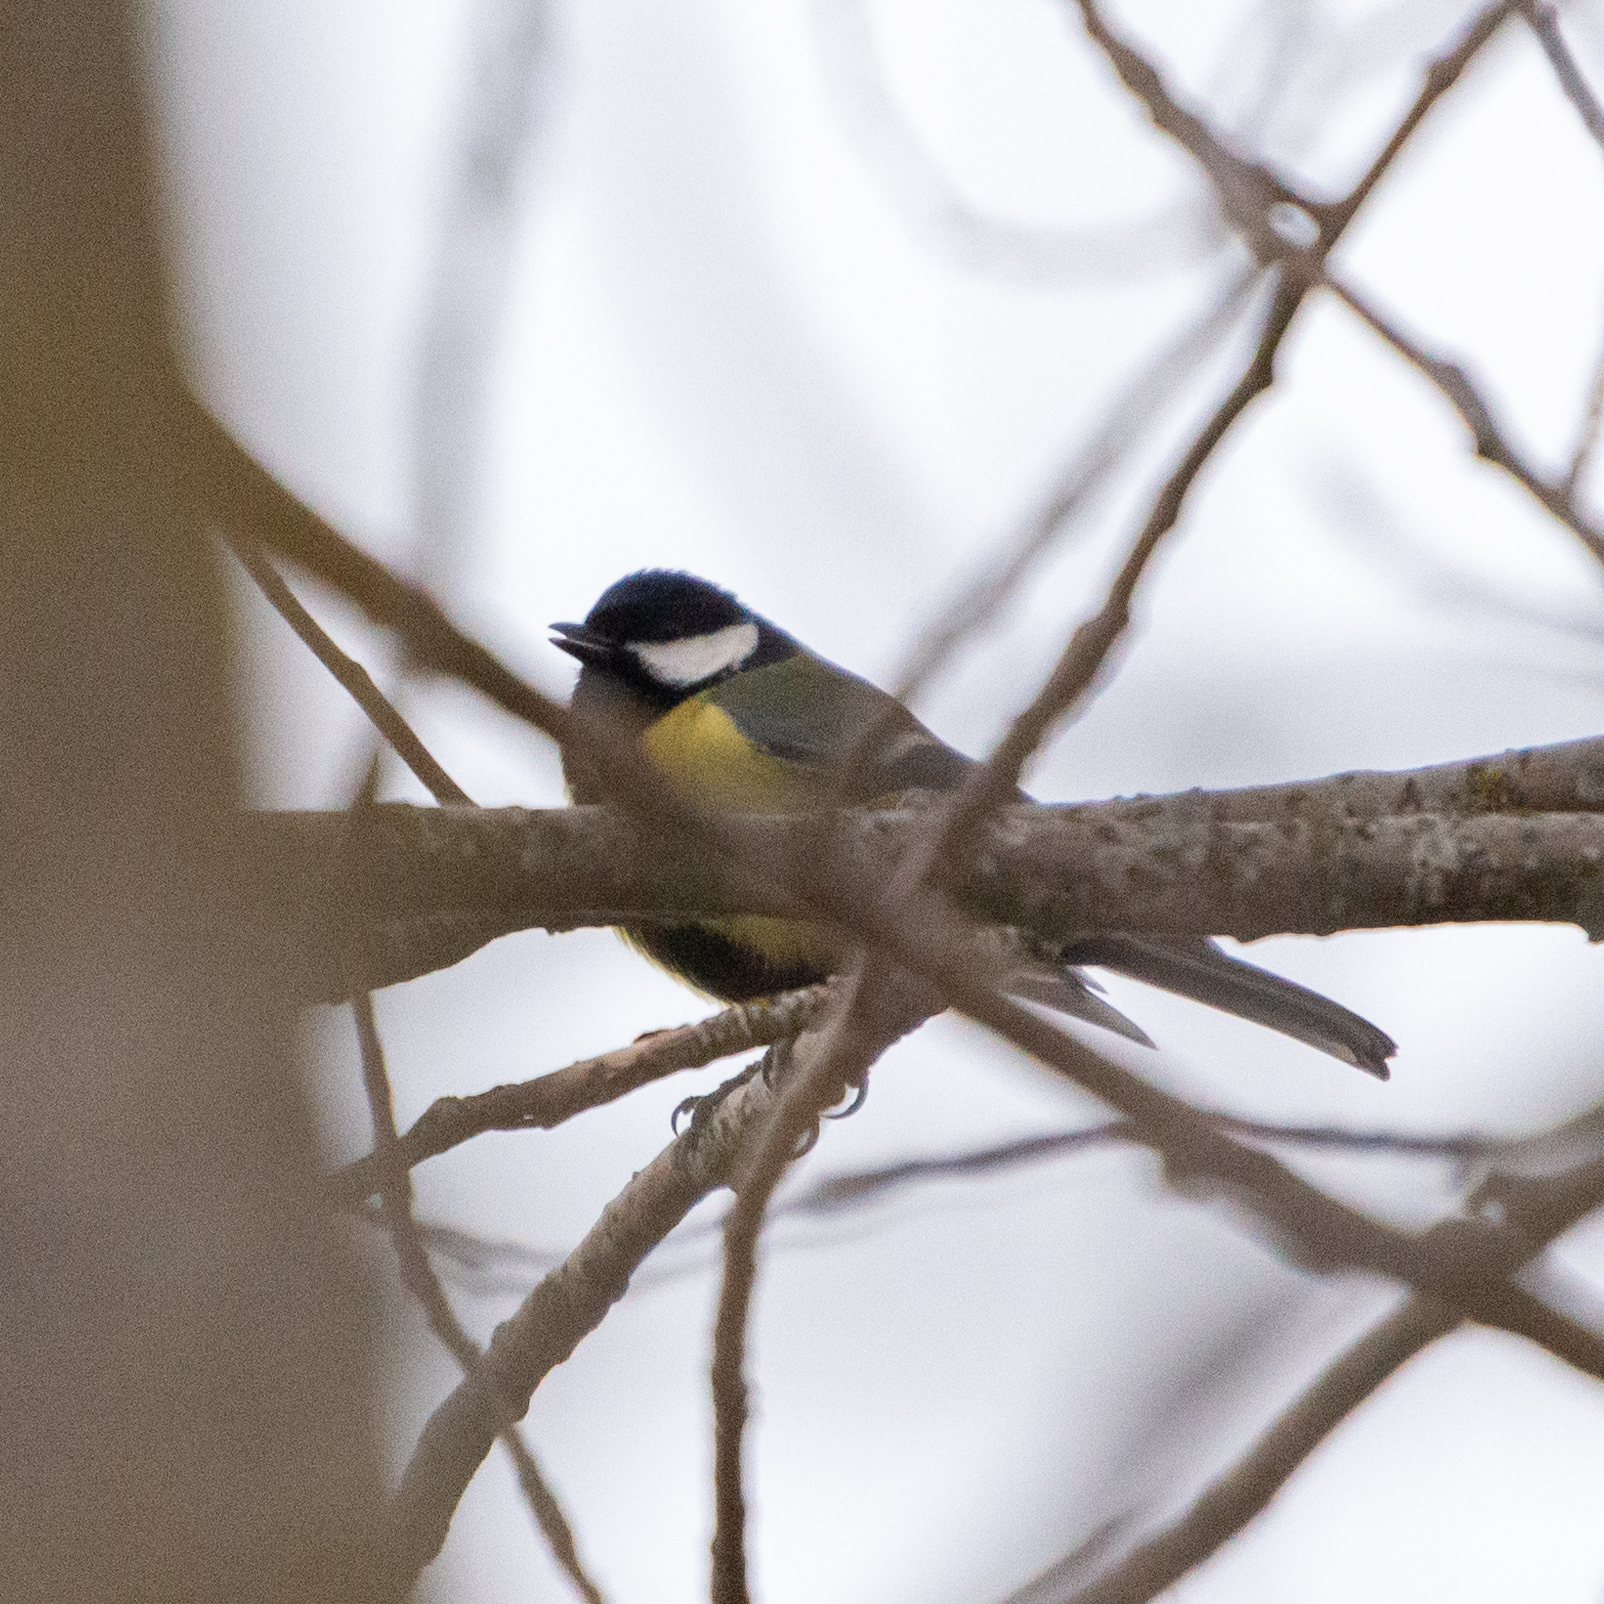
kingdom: Animalia
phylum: Chordata
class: Aves
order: Passeriformes
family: Paridae
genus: Parus
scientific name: Parus major
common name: Great tit
